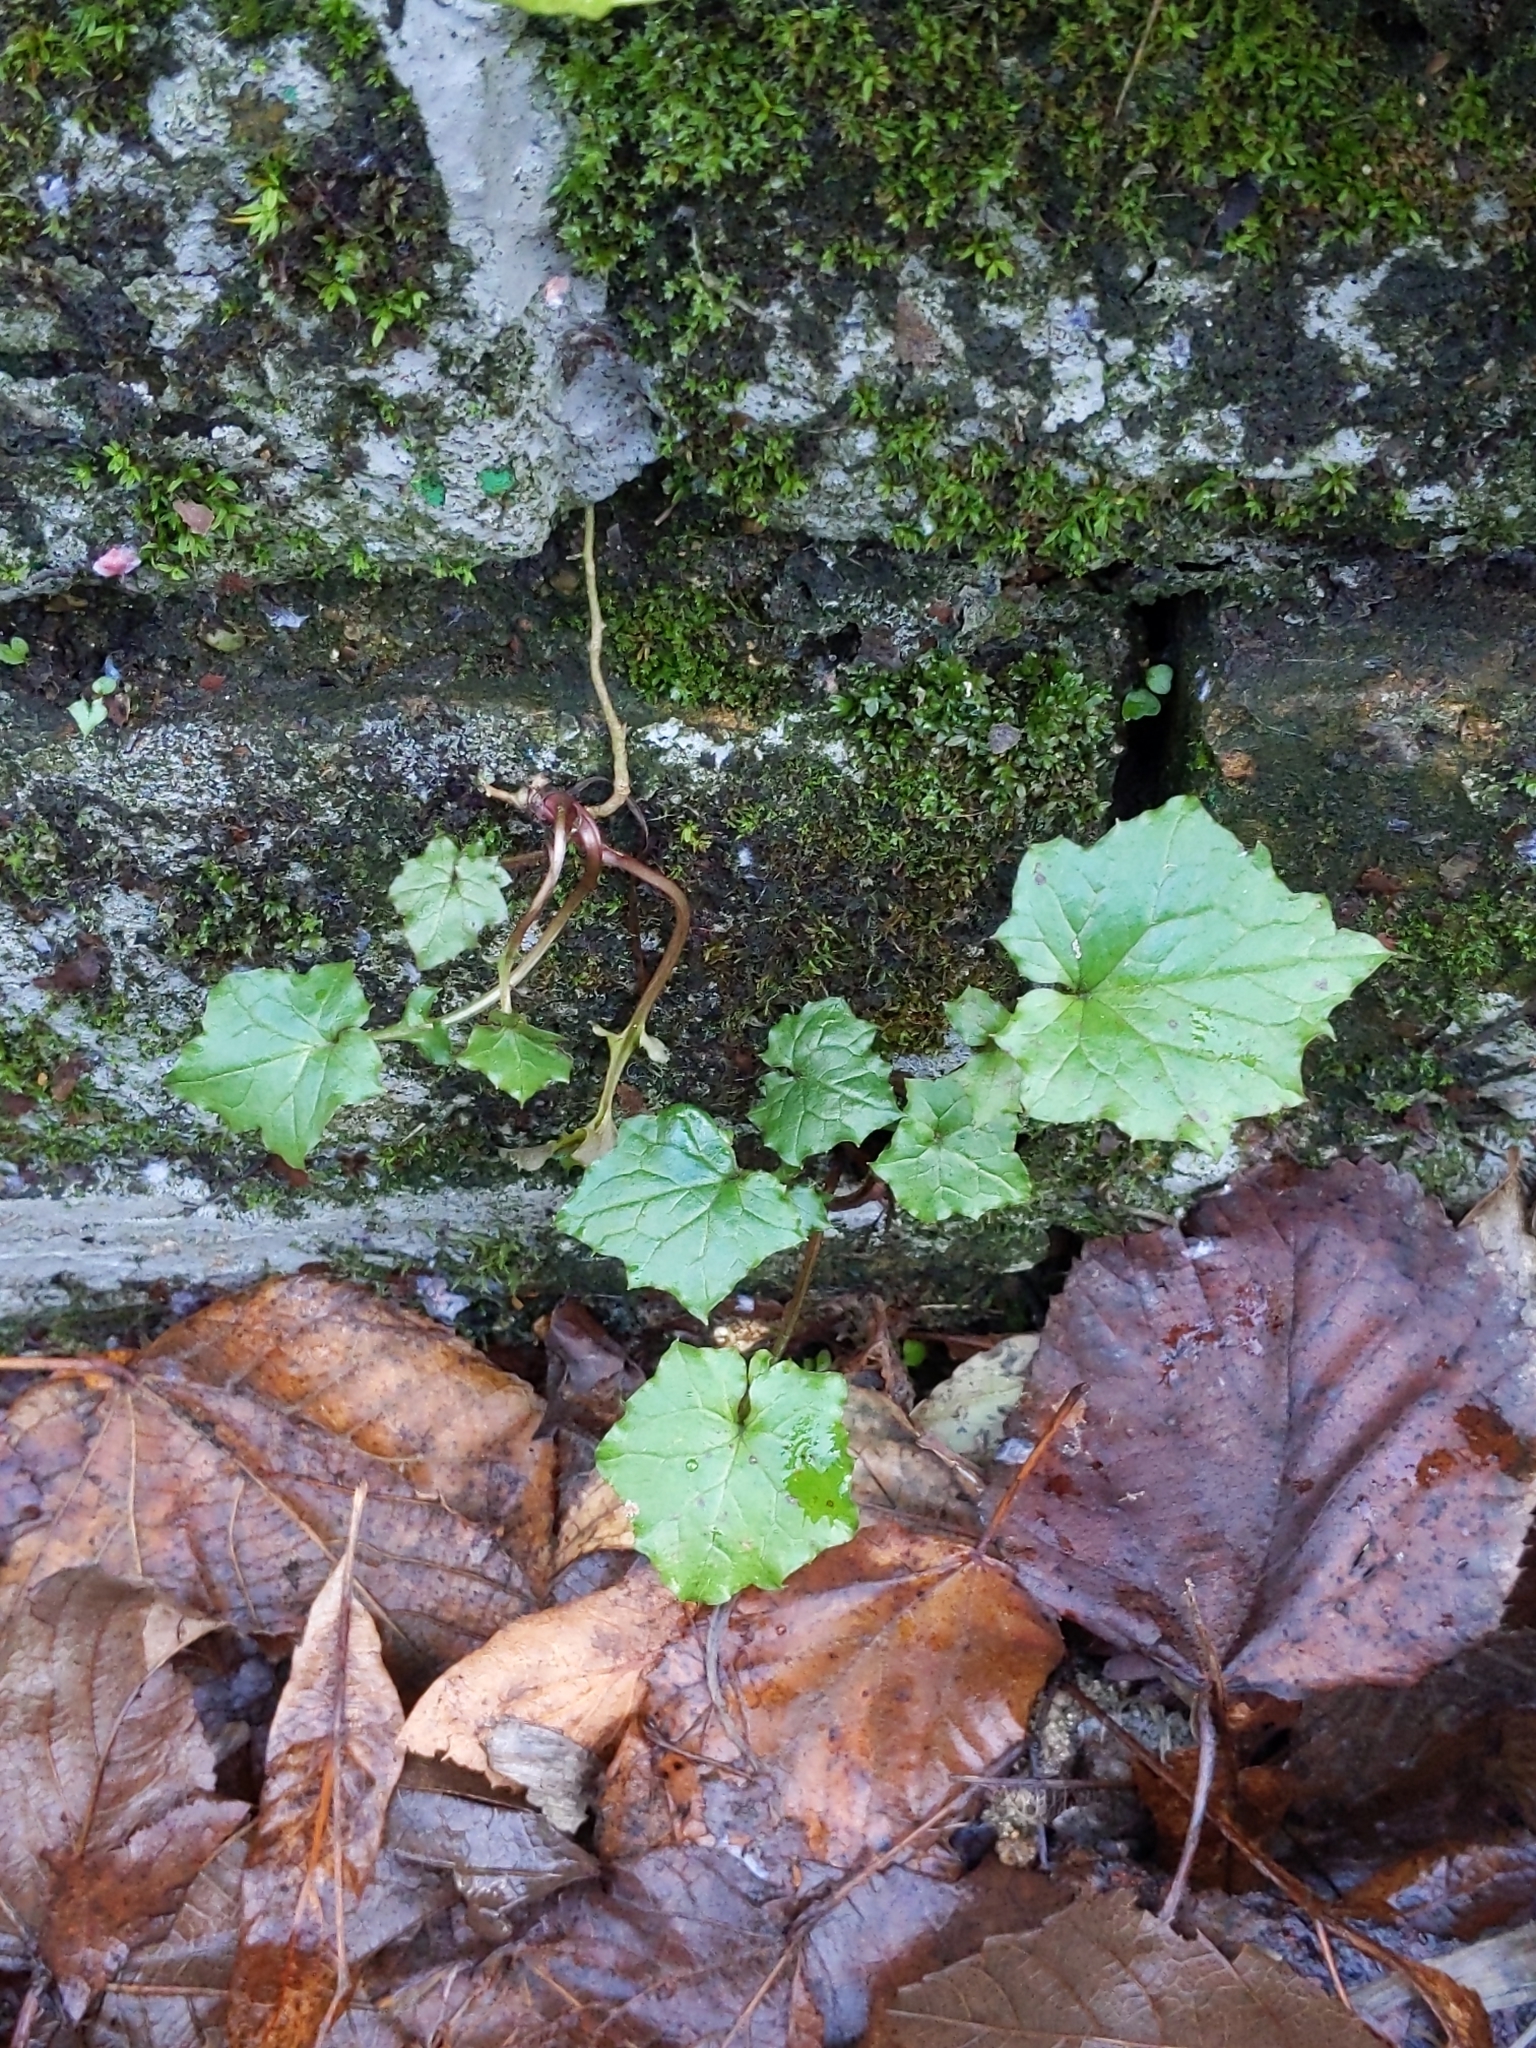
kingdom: Plantae
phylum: Tracheophyta
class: Magnoliopsida
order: Asterales
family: Asteraceae
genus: Mycelis
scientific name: Mycelis muralis
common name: Wall lettuce
